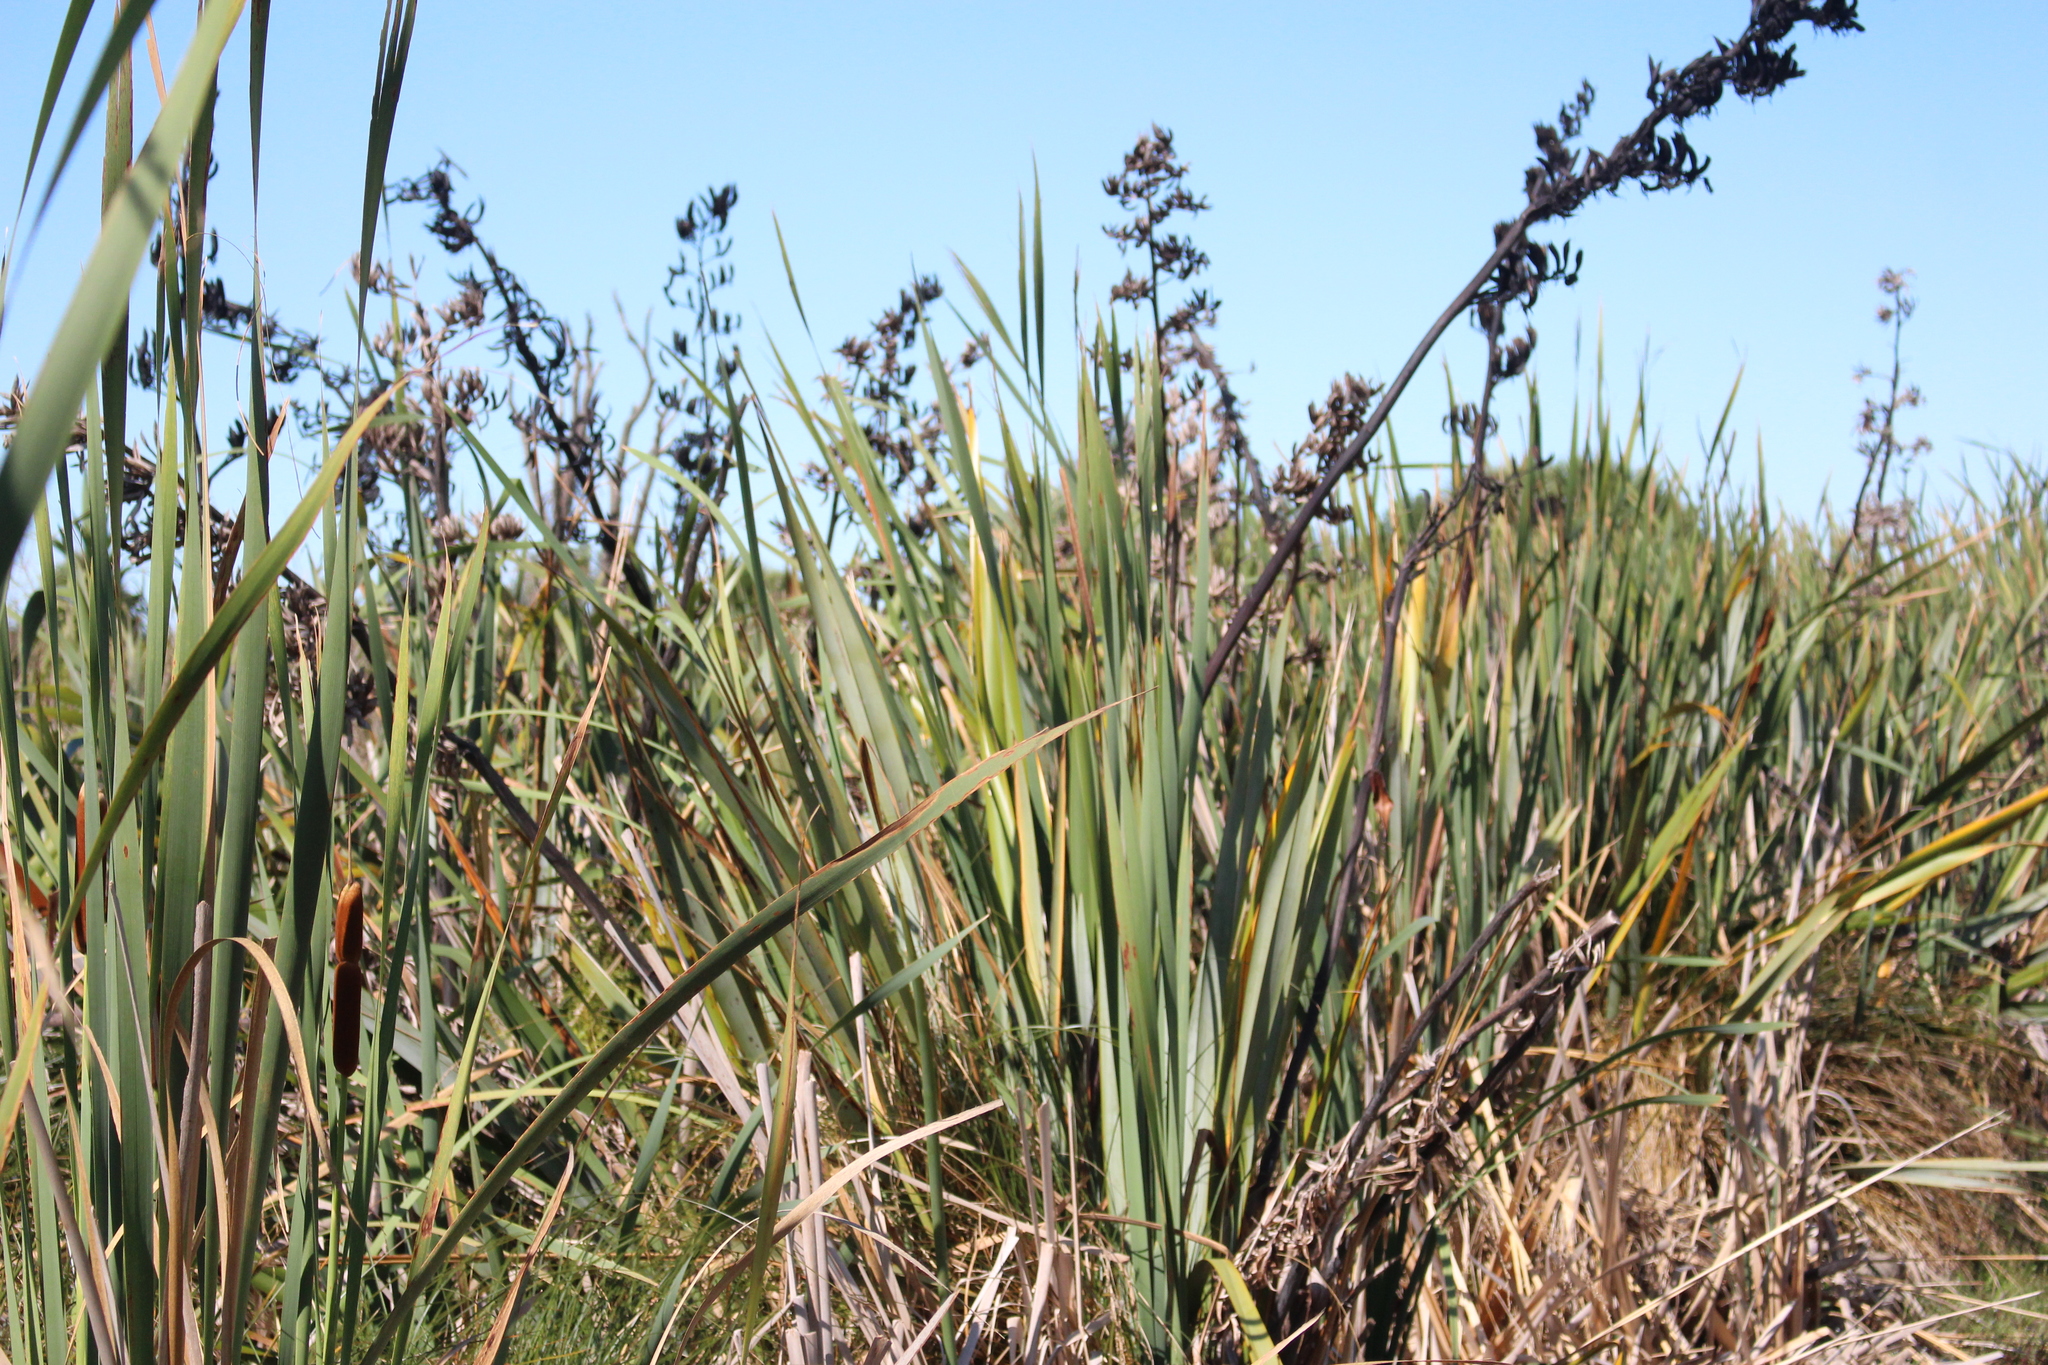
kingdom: Plantae
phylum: Tracheophyta
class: Liliopsida
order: Asparagales
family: Asphodelaceae
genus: Phormium
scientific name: Phormium tenax
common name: New zealand flax
